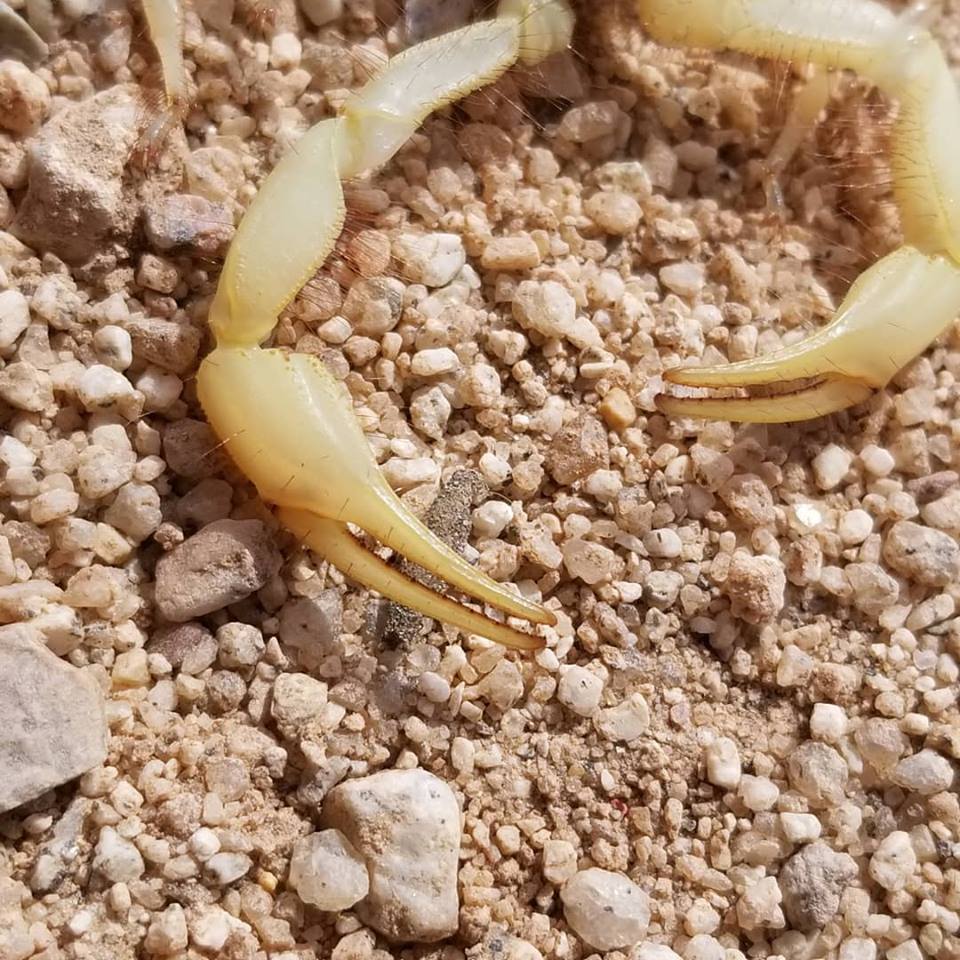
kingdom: Animalia
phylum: Arthropoda
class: Arachnida
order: Scorpiones
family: Hadruridae
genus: Hadrurus
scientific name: Hadrurus arizonensis
